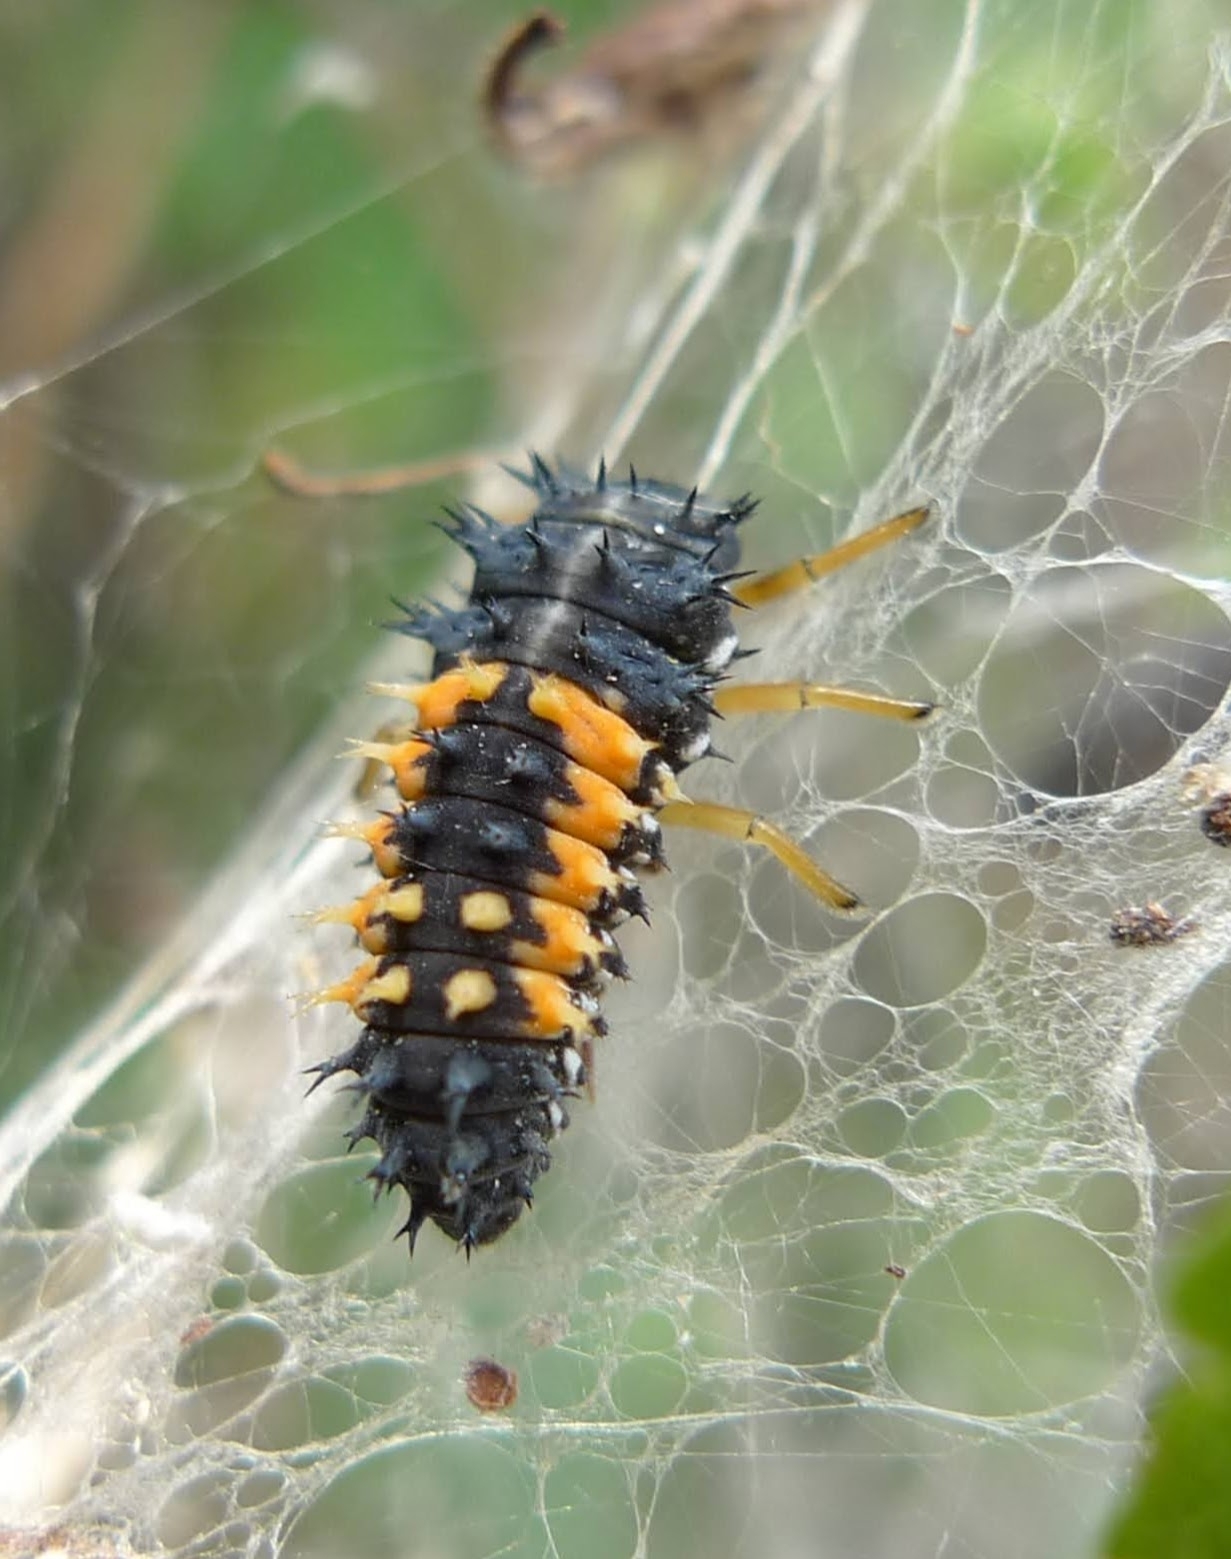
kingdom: Animalia
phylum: Arthropoda
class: Insecta
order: Coleoptera
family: Coccinellidae
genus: Harmonia
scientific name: Harmonia axyridis
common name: Harlequin ladybird
